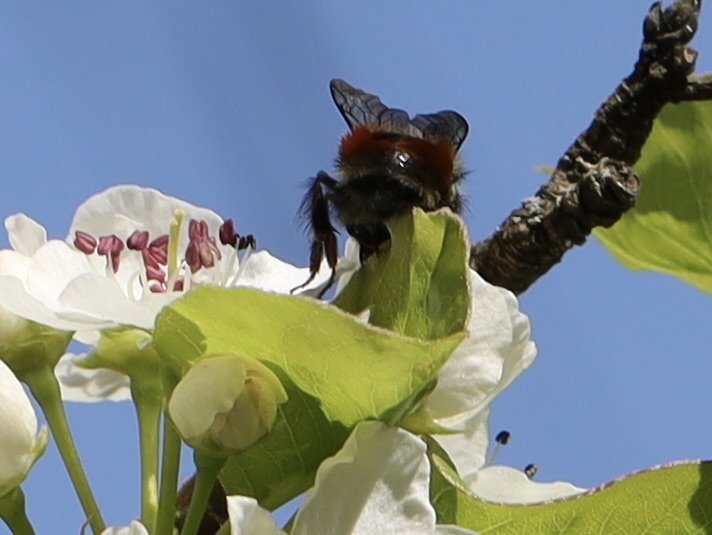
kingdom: Animalia
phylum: Arthropoda
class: Insecta
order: Hymenoptera
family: Apidae
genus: Bombus
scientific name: Bombus melanopygus
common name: Black tail bumble bee
